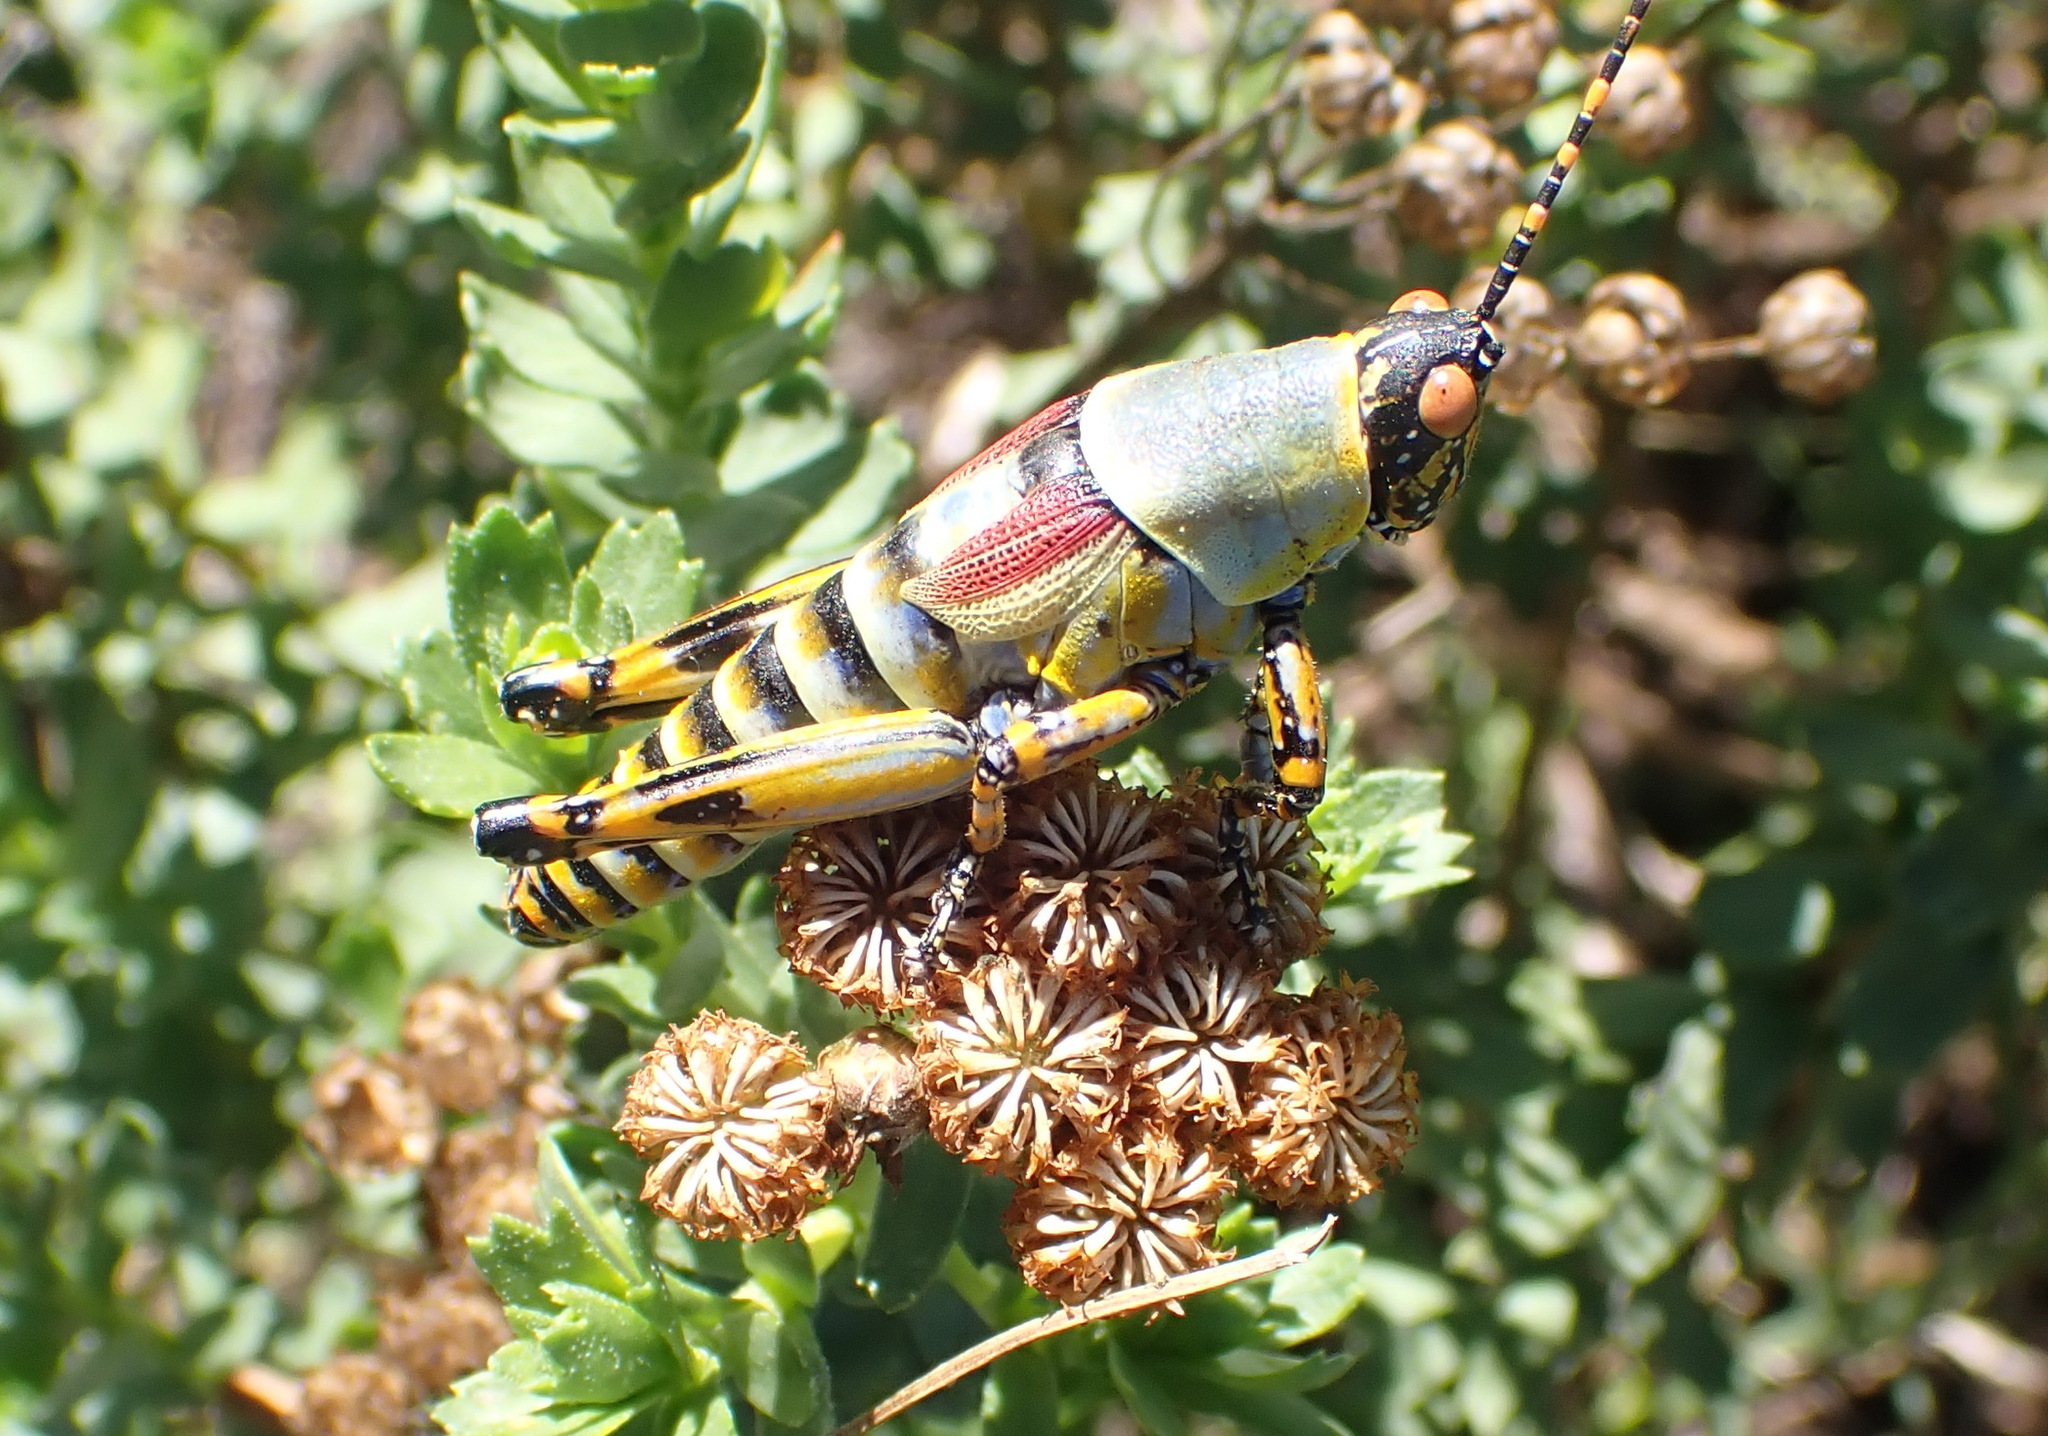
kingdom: Animalia
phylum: Arthropoda
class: Insecta
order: Orthoptera
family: Pyrgomorphidae
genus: Zonocerus
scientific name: Zonocerus elegans
